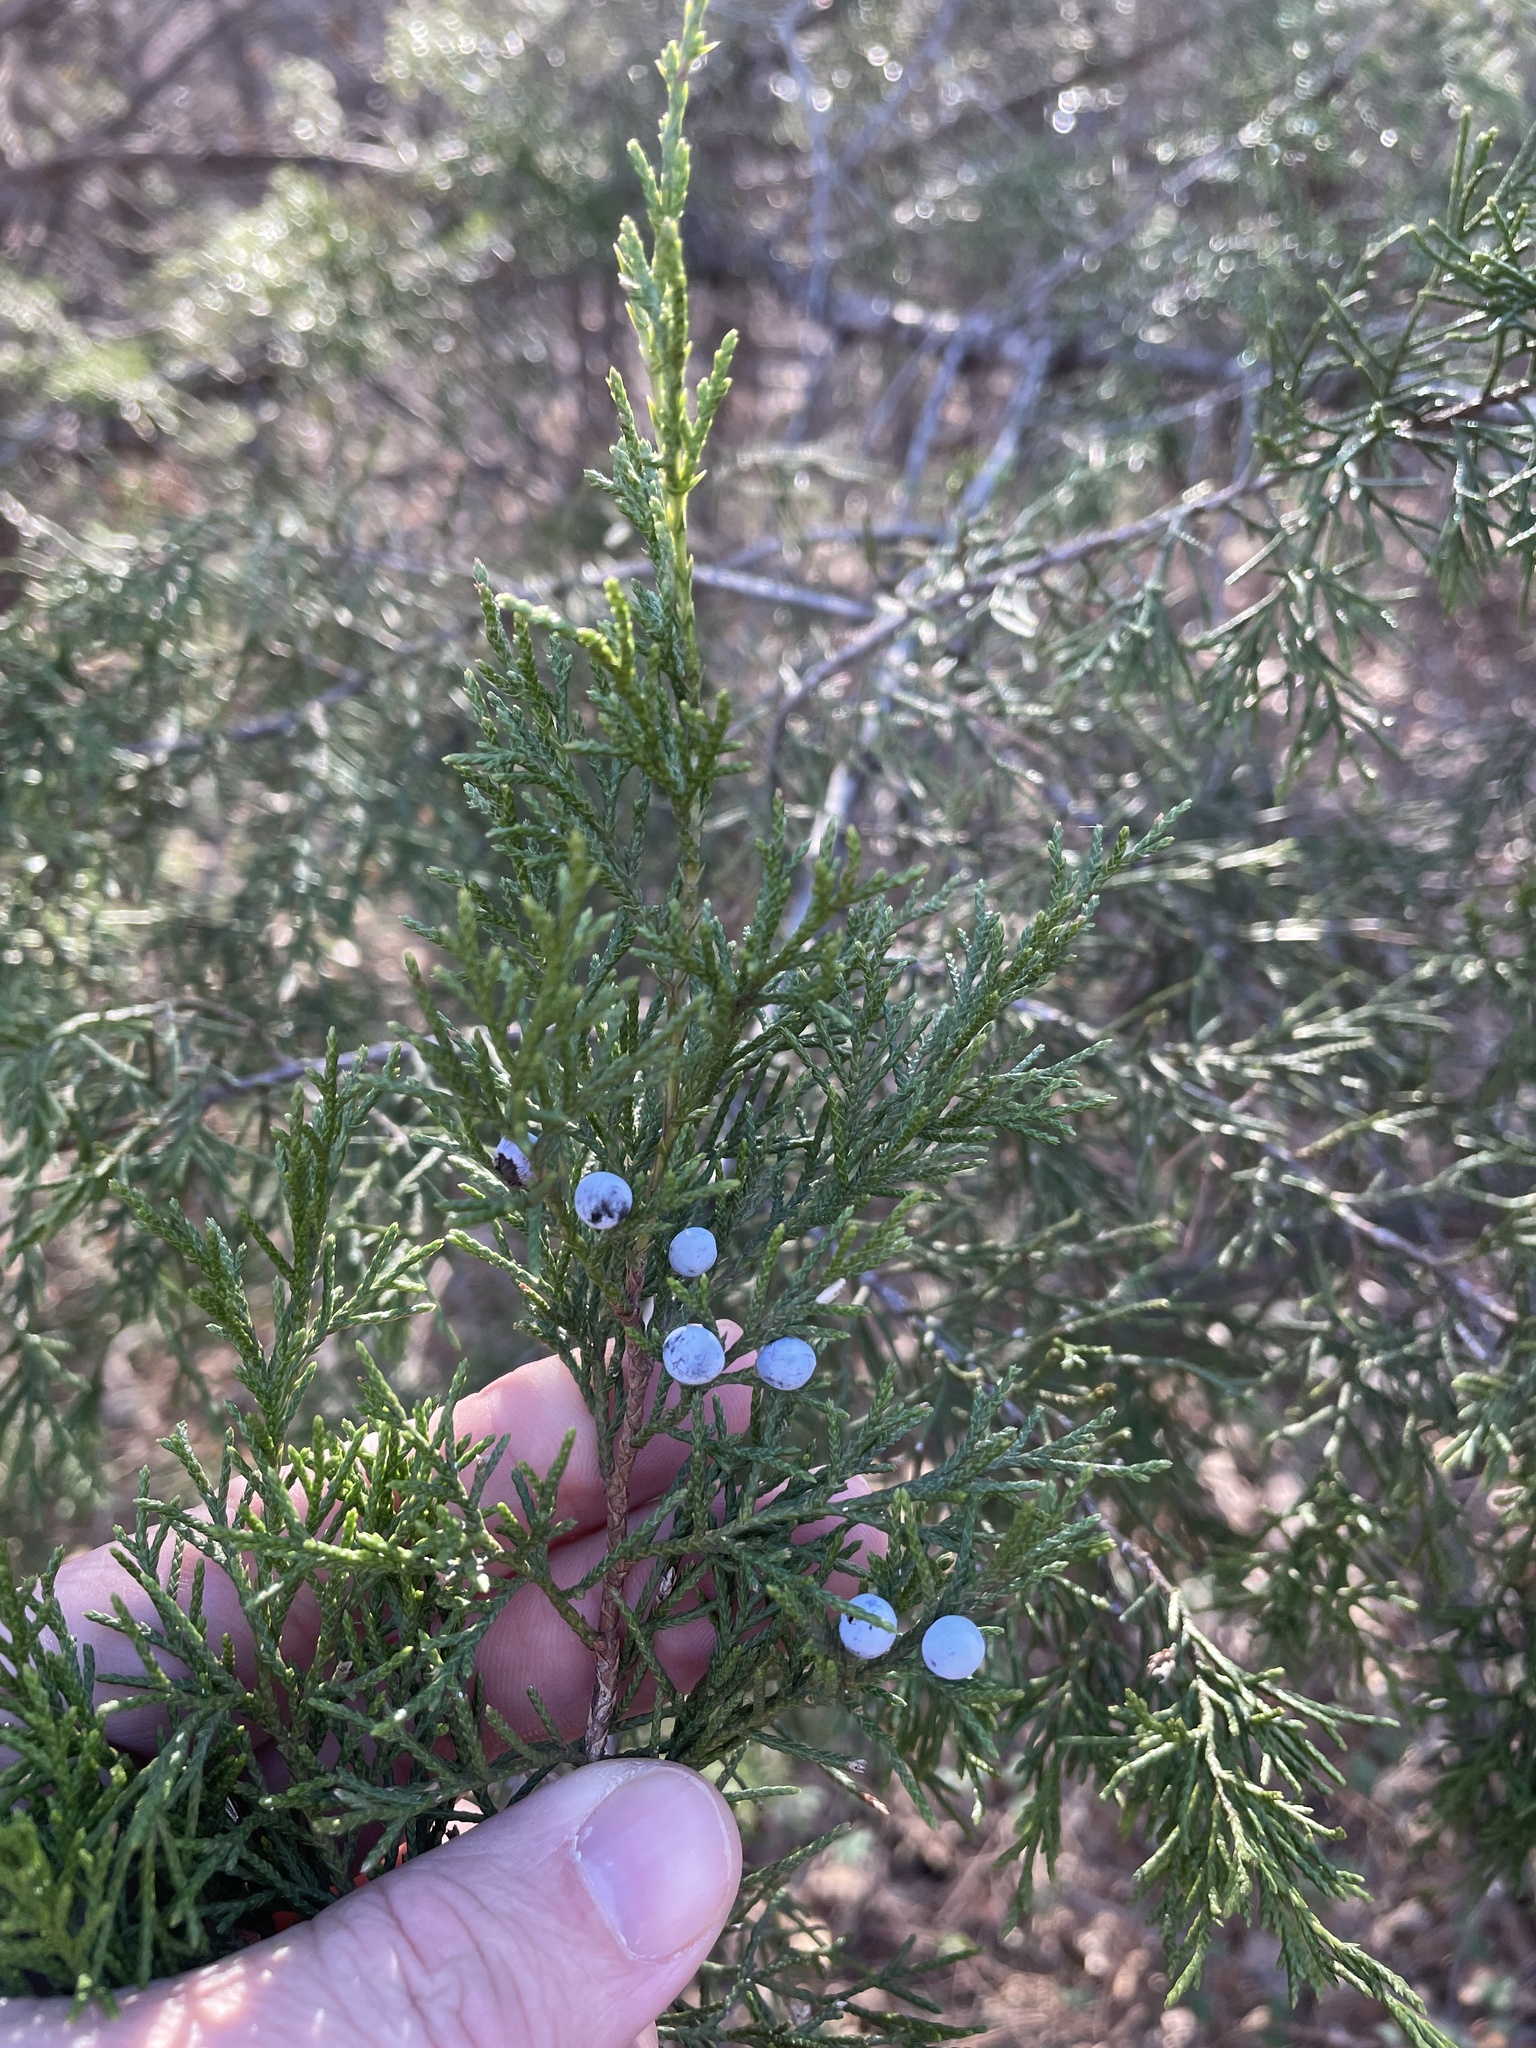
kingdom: Plantae
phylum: Tracheophyta
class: Pinopsida
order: Pinales
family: Cupressaceae
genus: Juniperus
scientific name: Juniperus virginiana
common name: Red juniper
